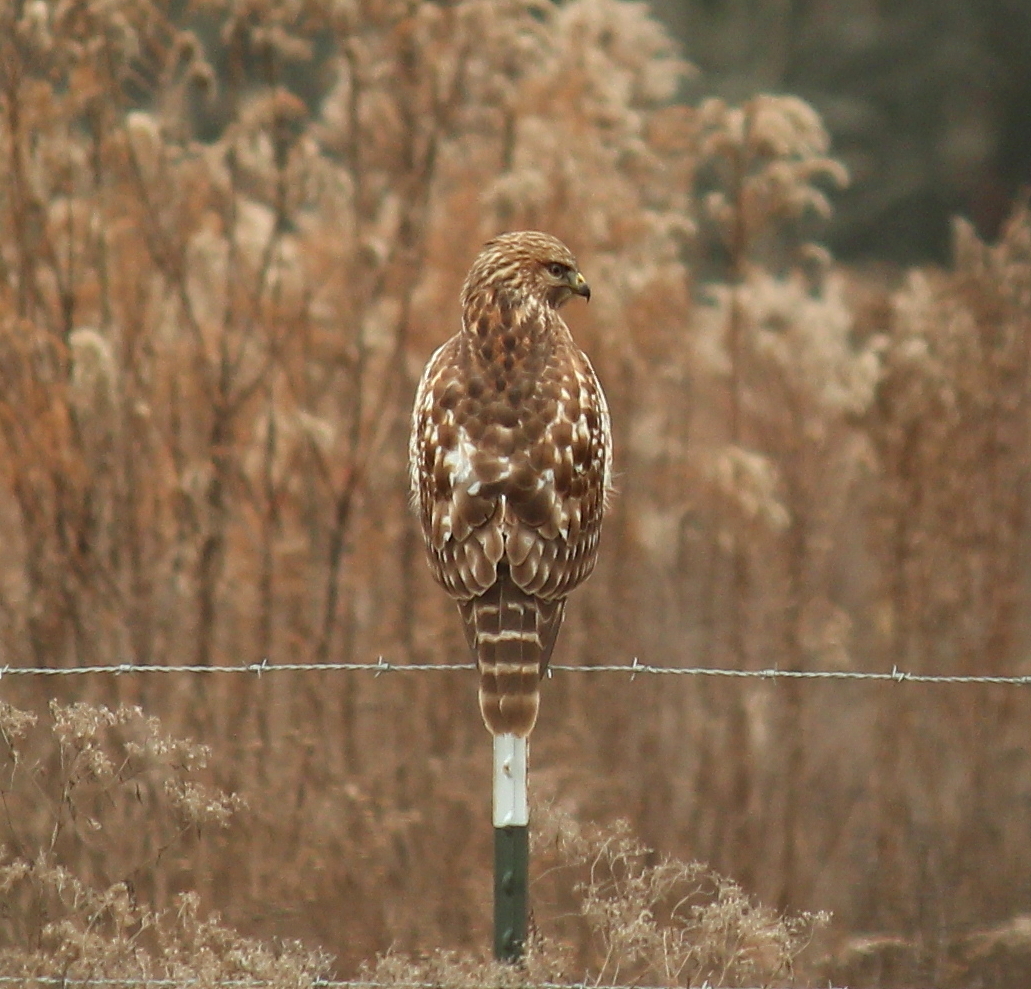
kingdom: Animalia
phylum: Chordata
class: Aves
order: Accipitriformes
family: Accipitridae
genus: Buteo
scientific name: Buteo lineatus
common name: Red-shouldered hawk
